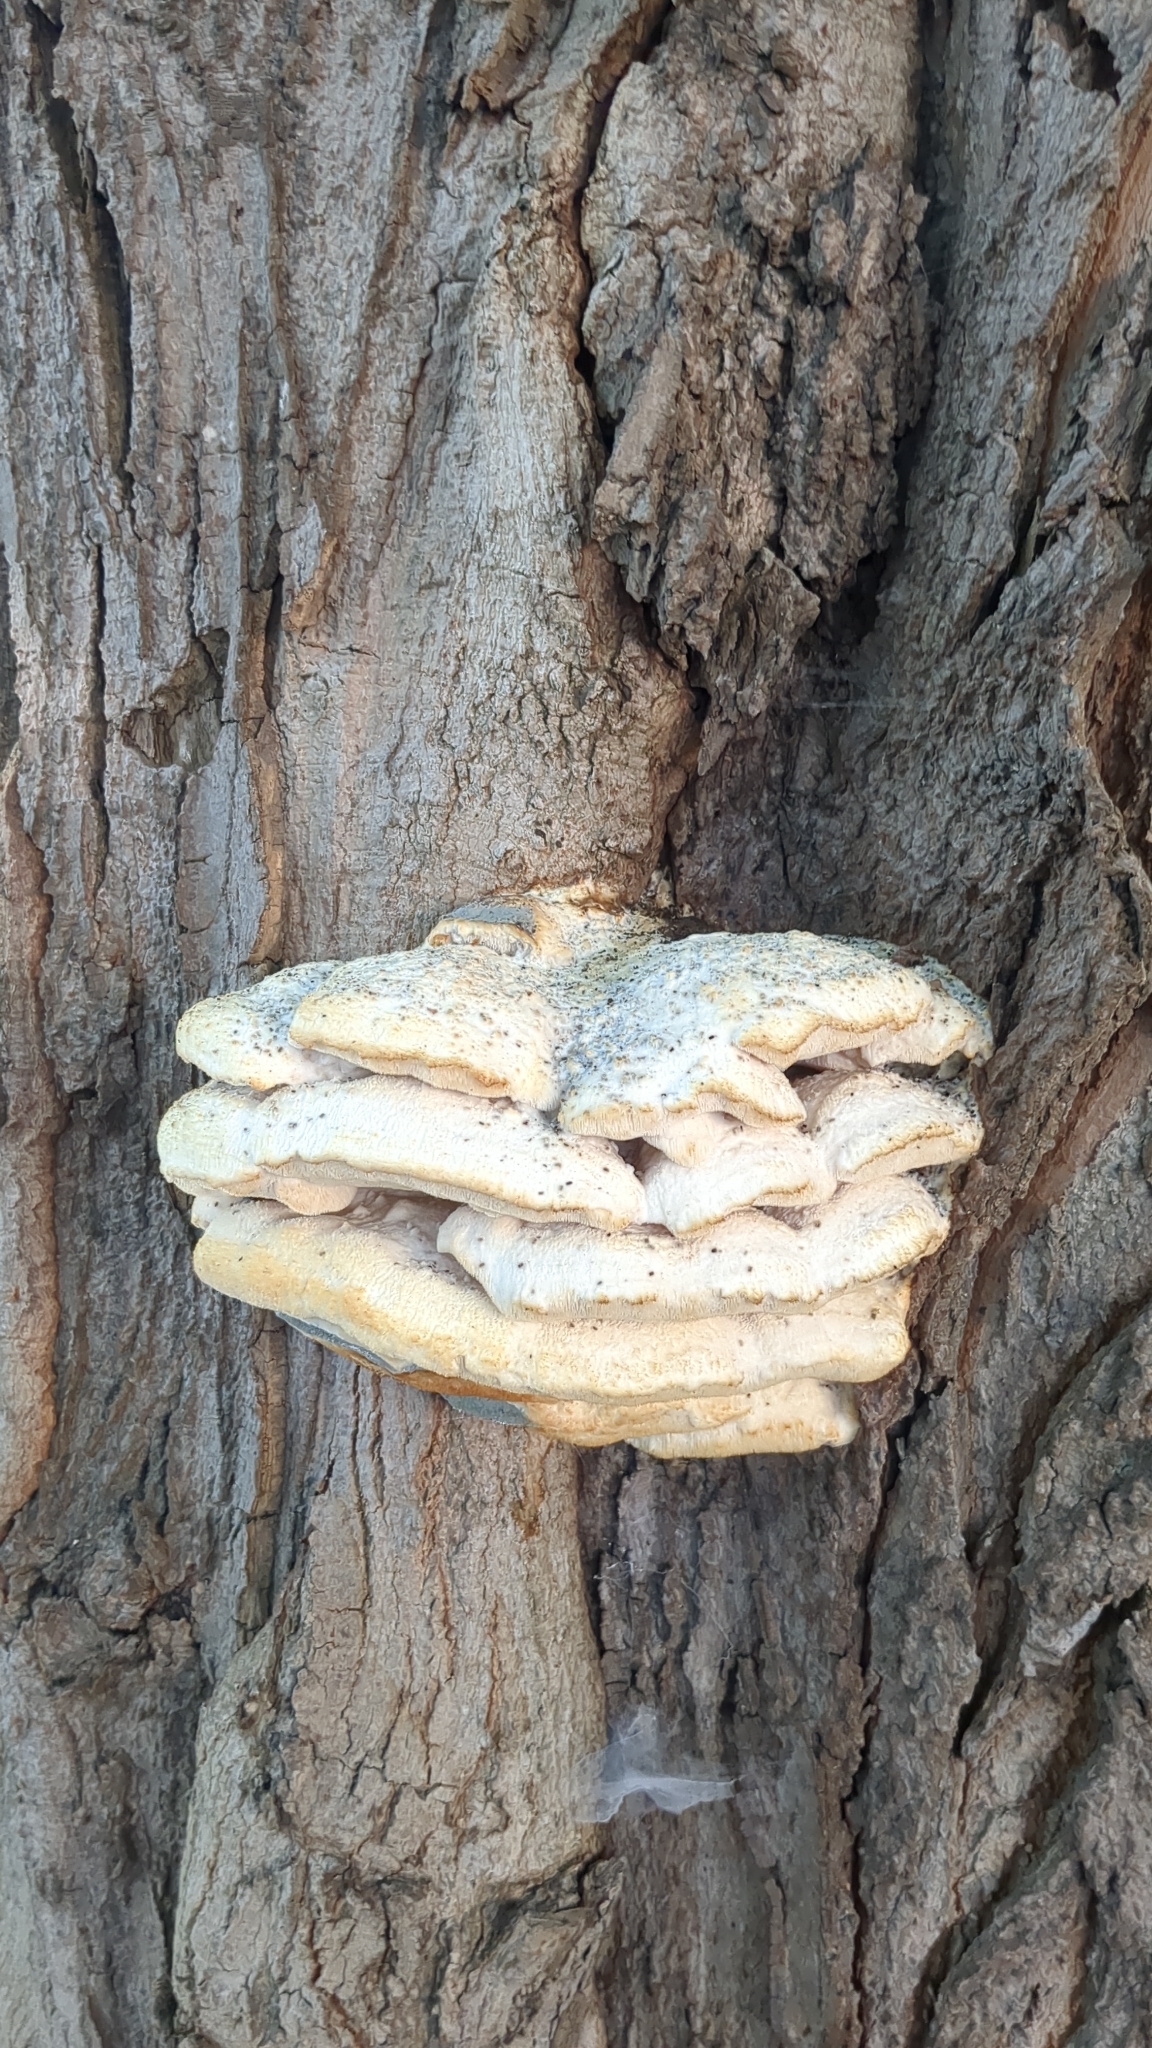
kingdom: Fungi
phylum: Basidiomycota
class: Agaricomycetes
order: Polyporales
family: Meruliaceae
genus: Climacodon
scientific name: Climacodon septentrionalis
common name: Northern tooth
